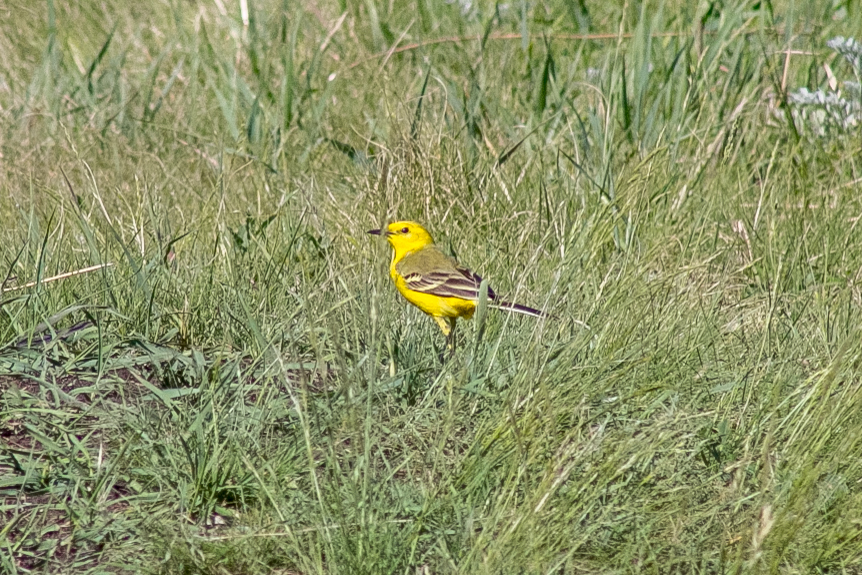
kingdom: Animalia
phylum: Chordata
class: Aves
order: Passeriformes
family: Motacillidae
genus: Motacilla
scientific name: Motacilla flava
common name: Western yellow wagtail
